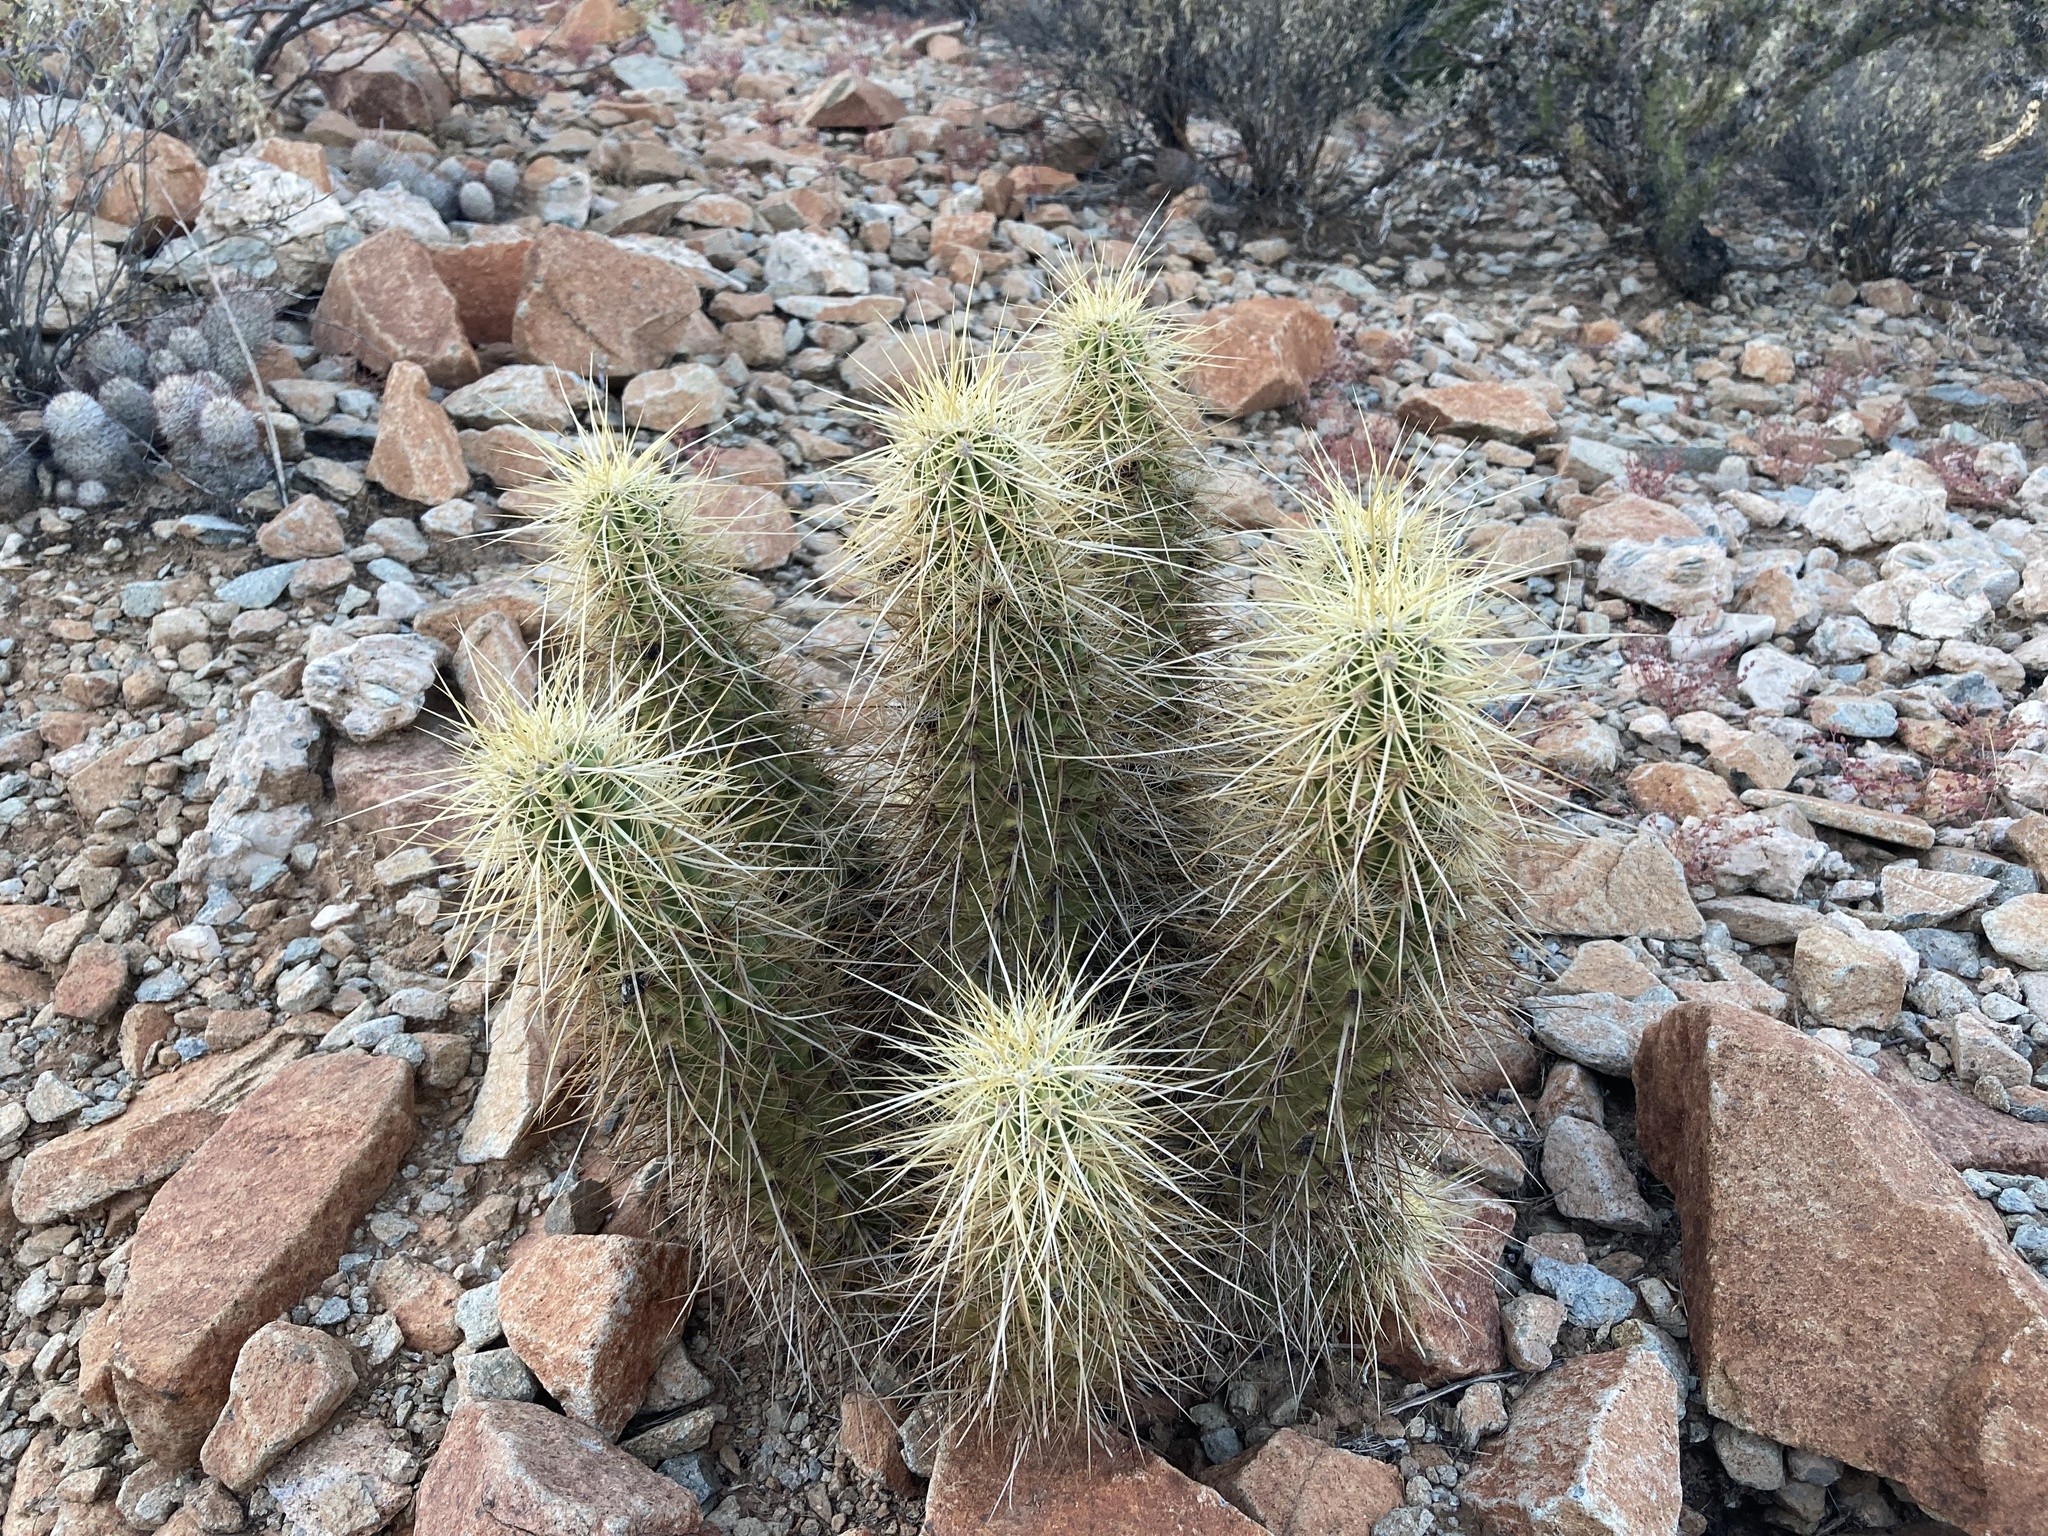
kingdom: Plantae
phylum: Tracheophyta
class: Magnoliopsida
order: Caryophyllales
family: Cactaceae
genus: Echinocereus
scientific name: Echinocereus nicholii
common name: Nichol's hedgehog cactus
